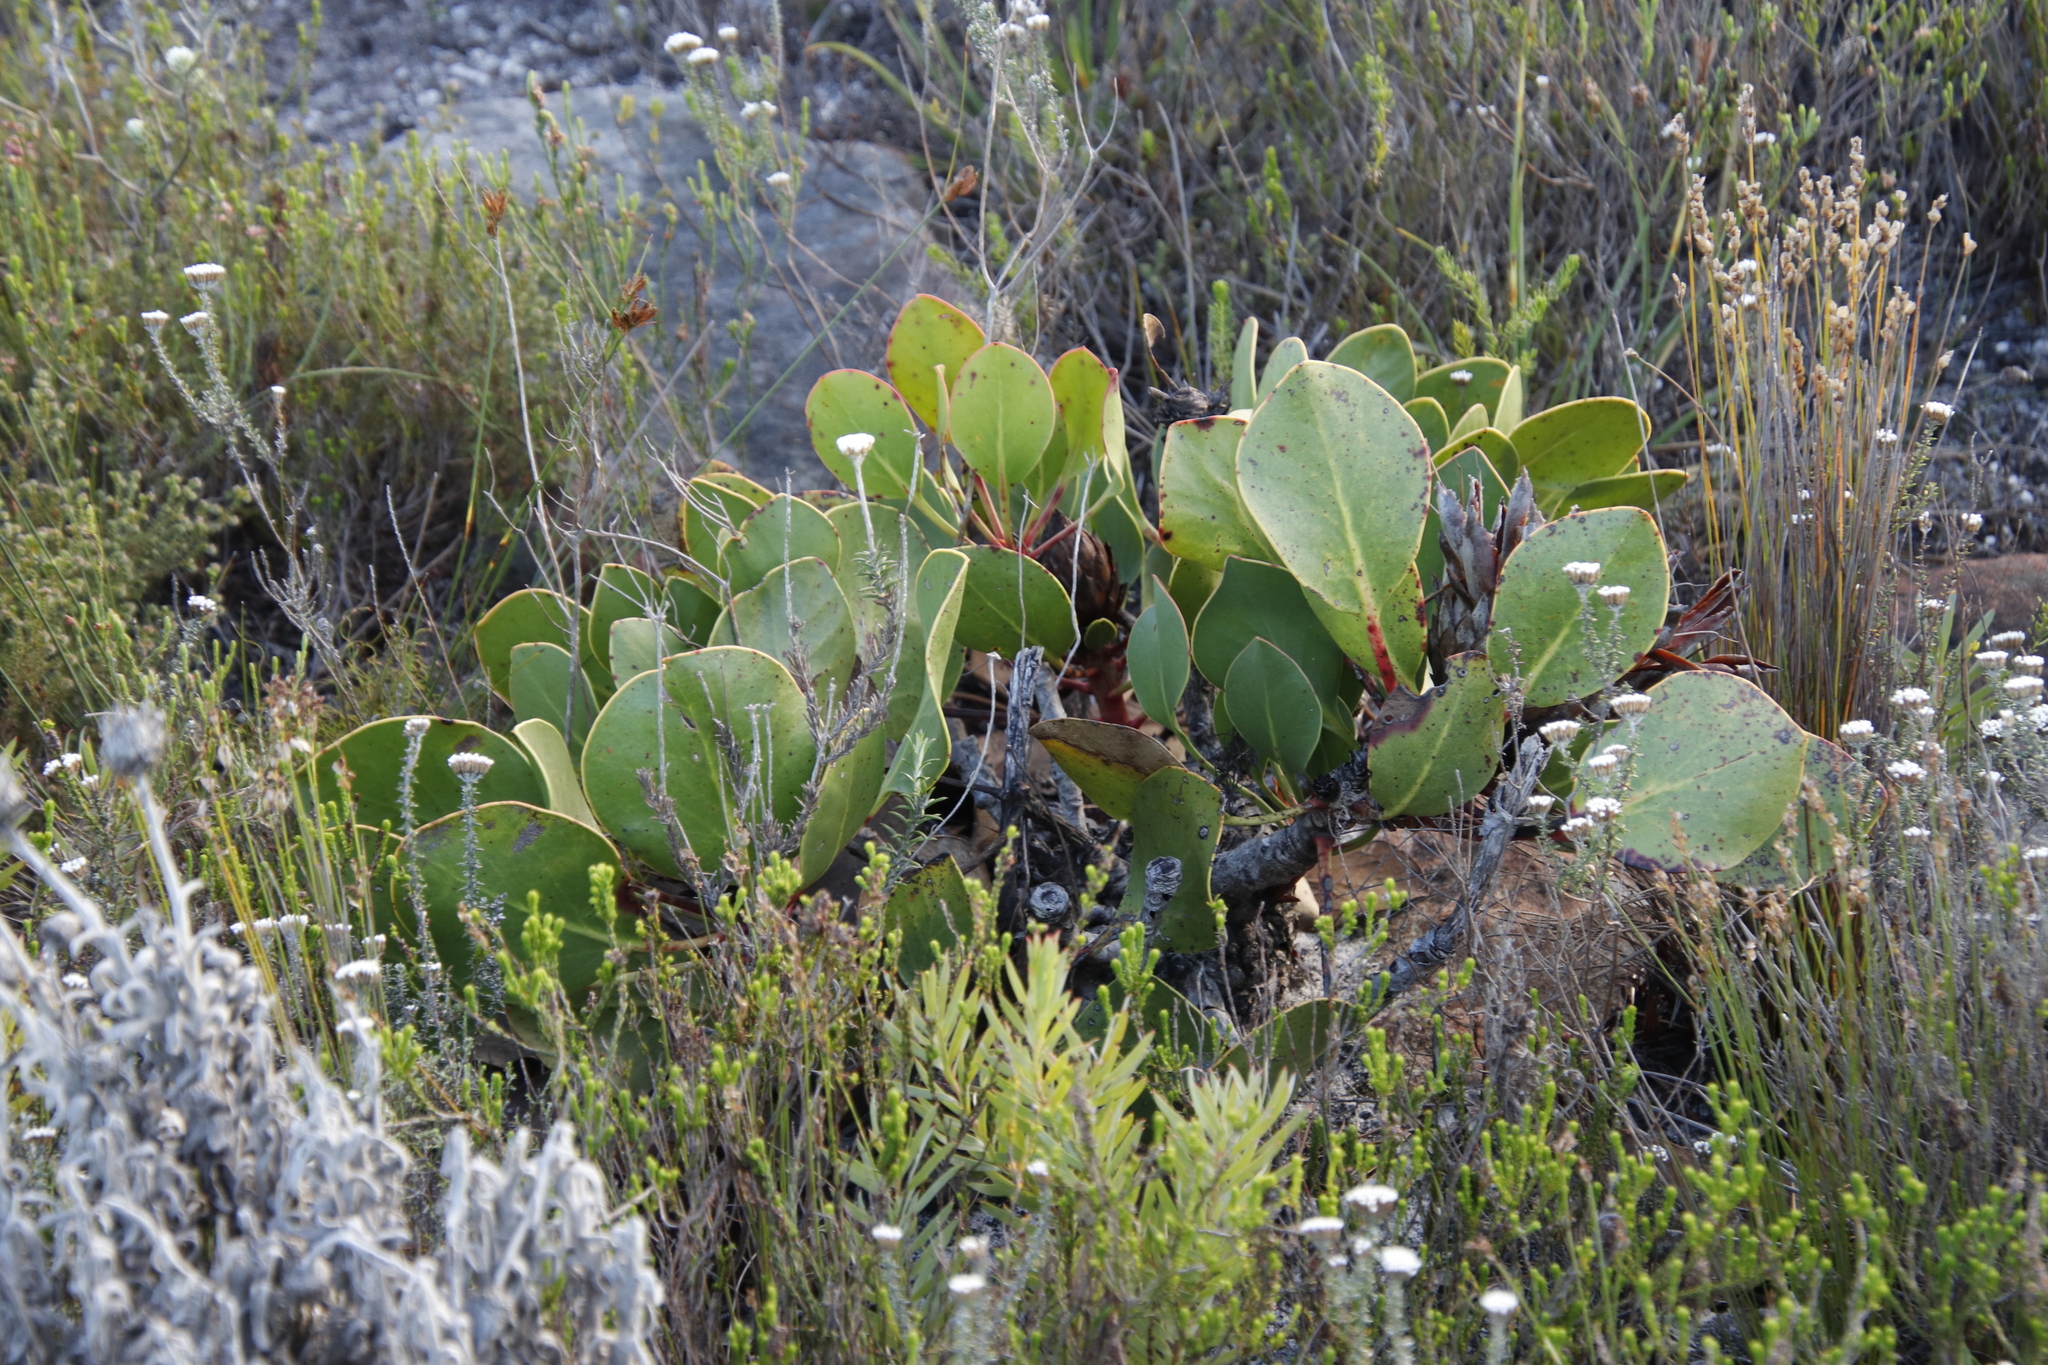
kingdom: Plantae
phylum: Tracheophyta
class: Magnoliopsida
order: Proteales
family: Proteaceae
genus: Protea
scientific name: Protea cynaroides
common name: King protea
